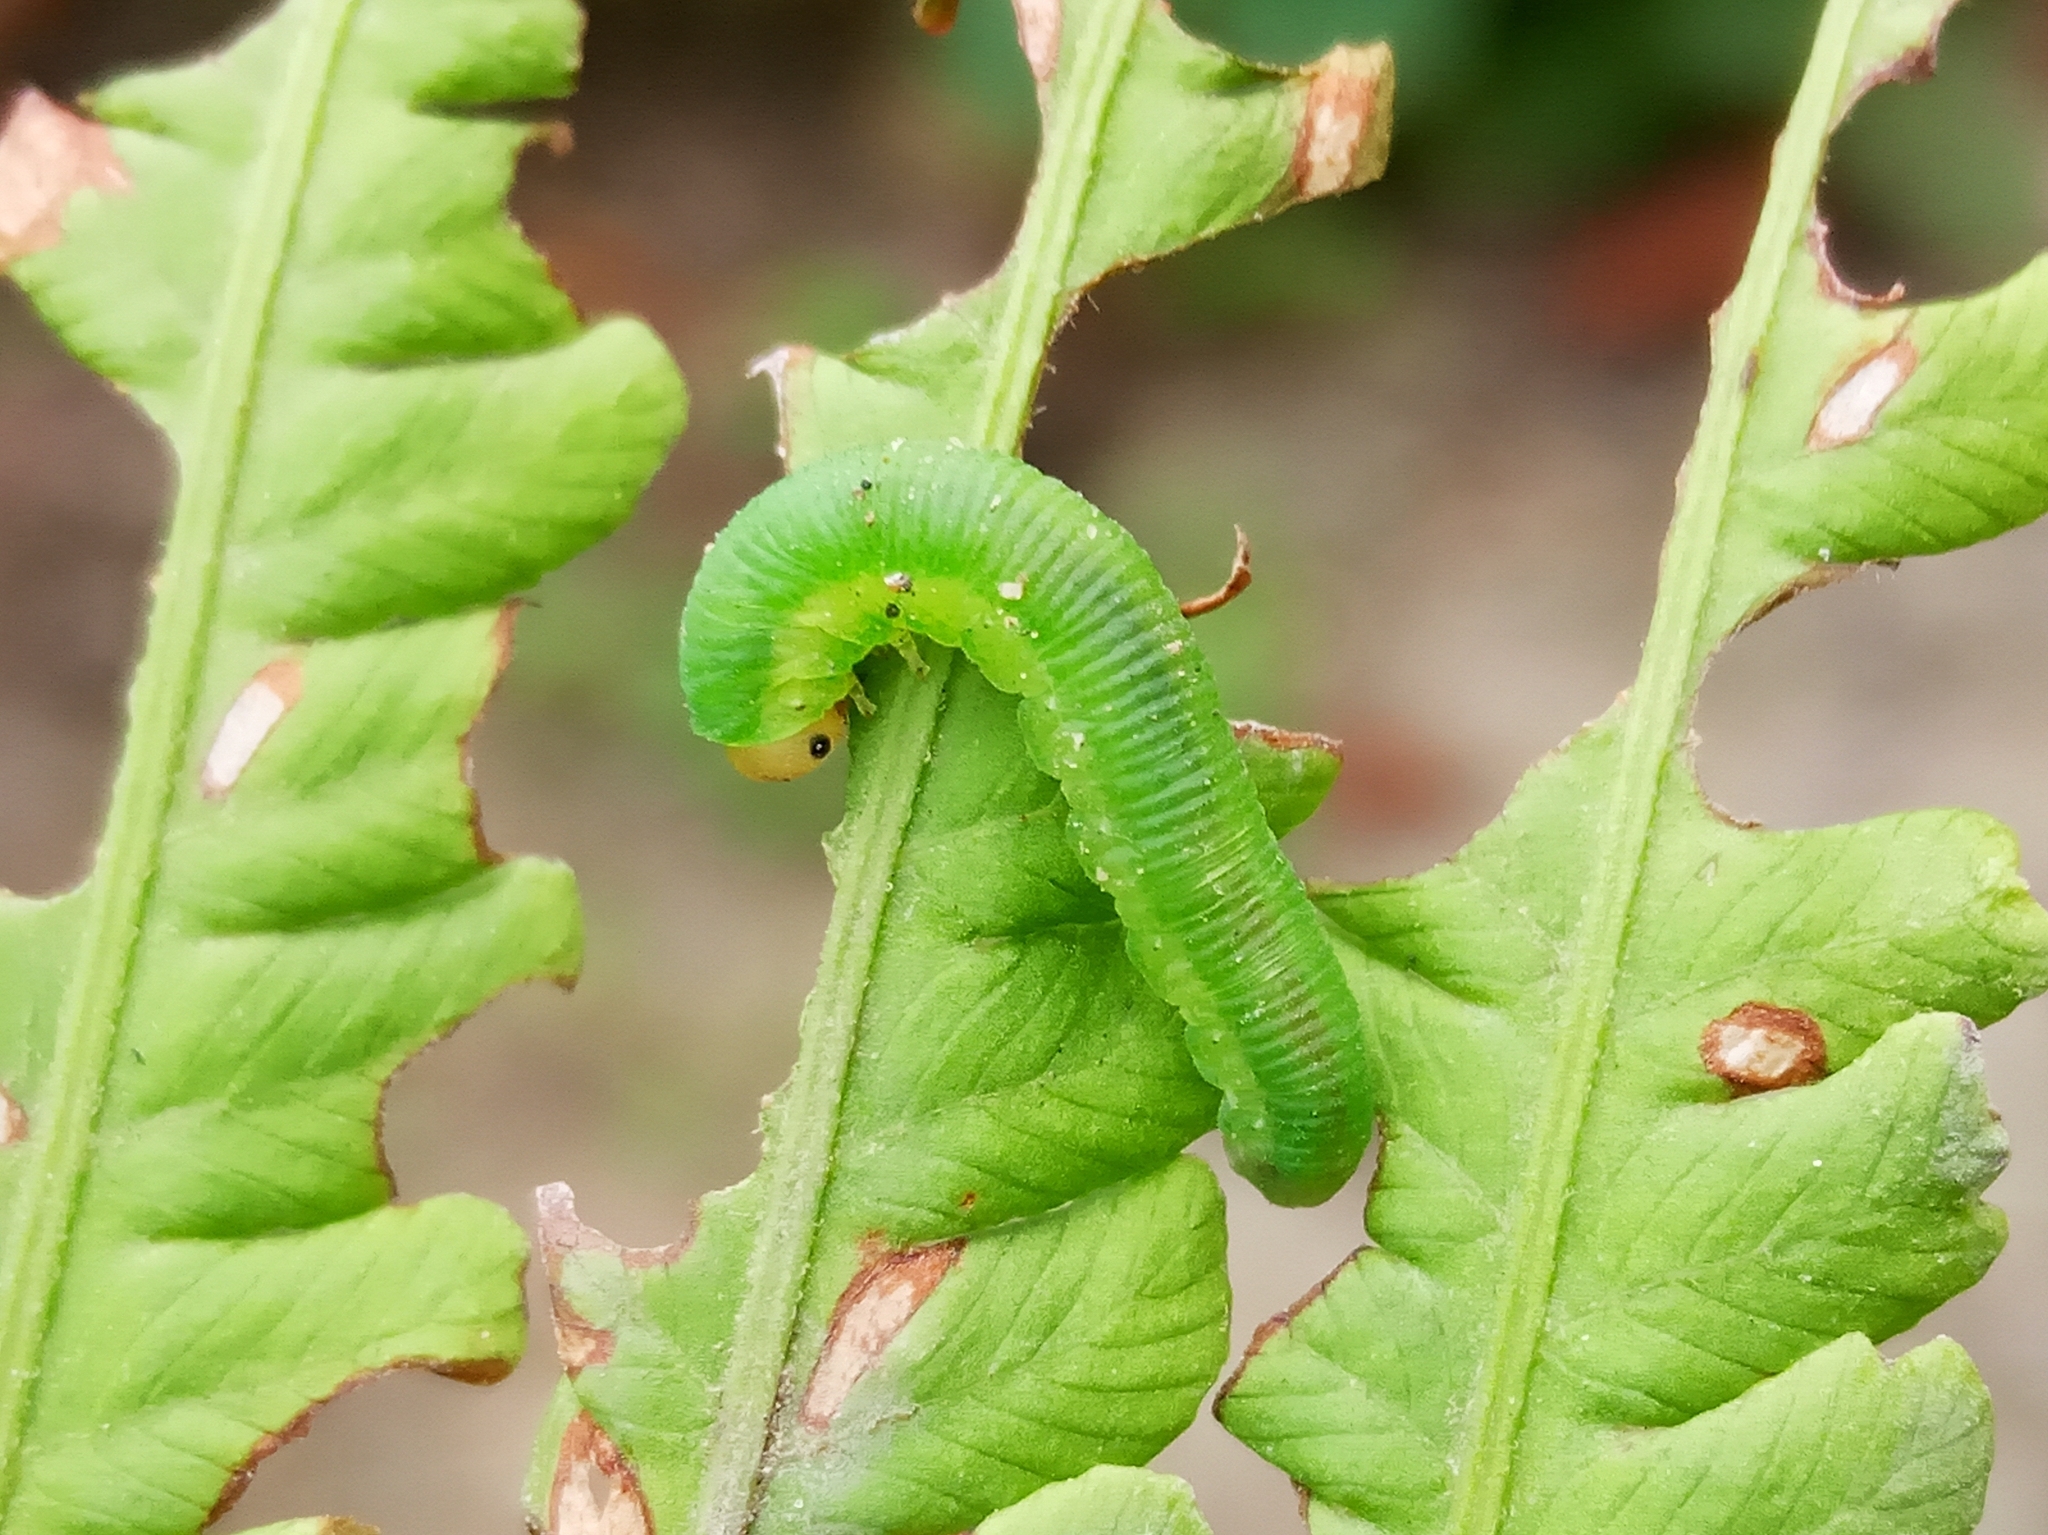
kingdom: Animalia
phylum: Arthropoda
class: Insecta
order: Hymenoptera
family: Tenthredinidae
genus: Aneugmenus
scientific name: Aneugmenus
